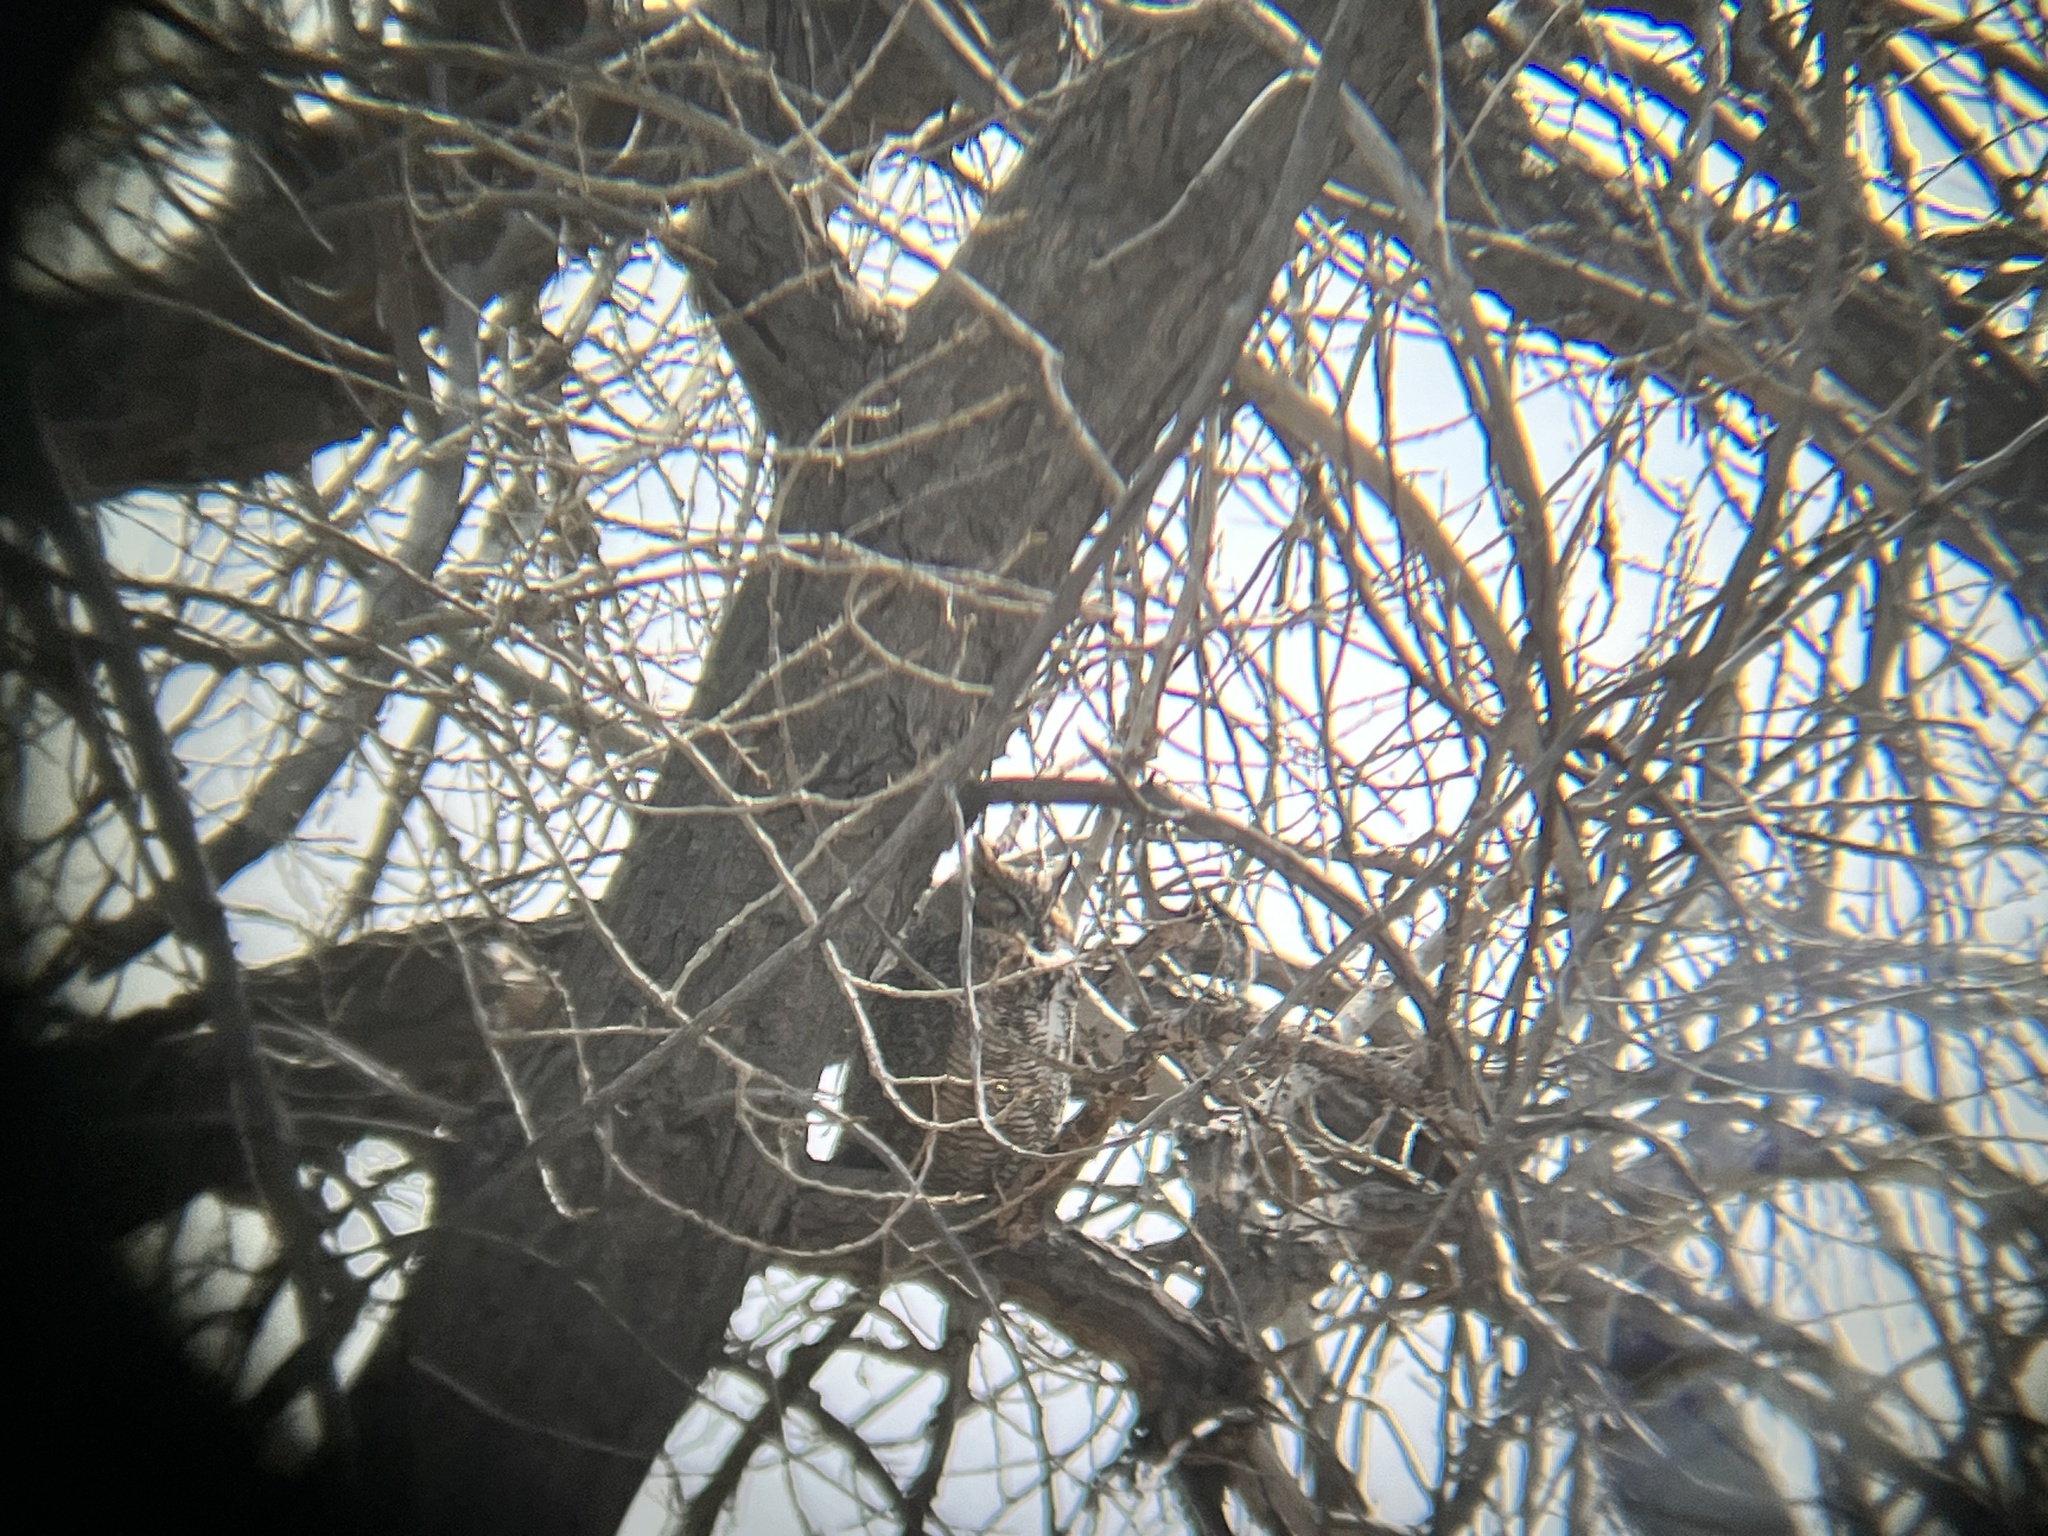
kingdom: Animalia
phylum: Chordata
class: Aves
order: Strigiformes
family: Strigidae
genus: Bubo
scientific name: Bubo virginianus
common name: Great horned owl
